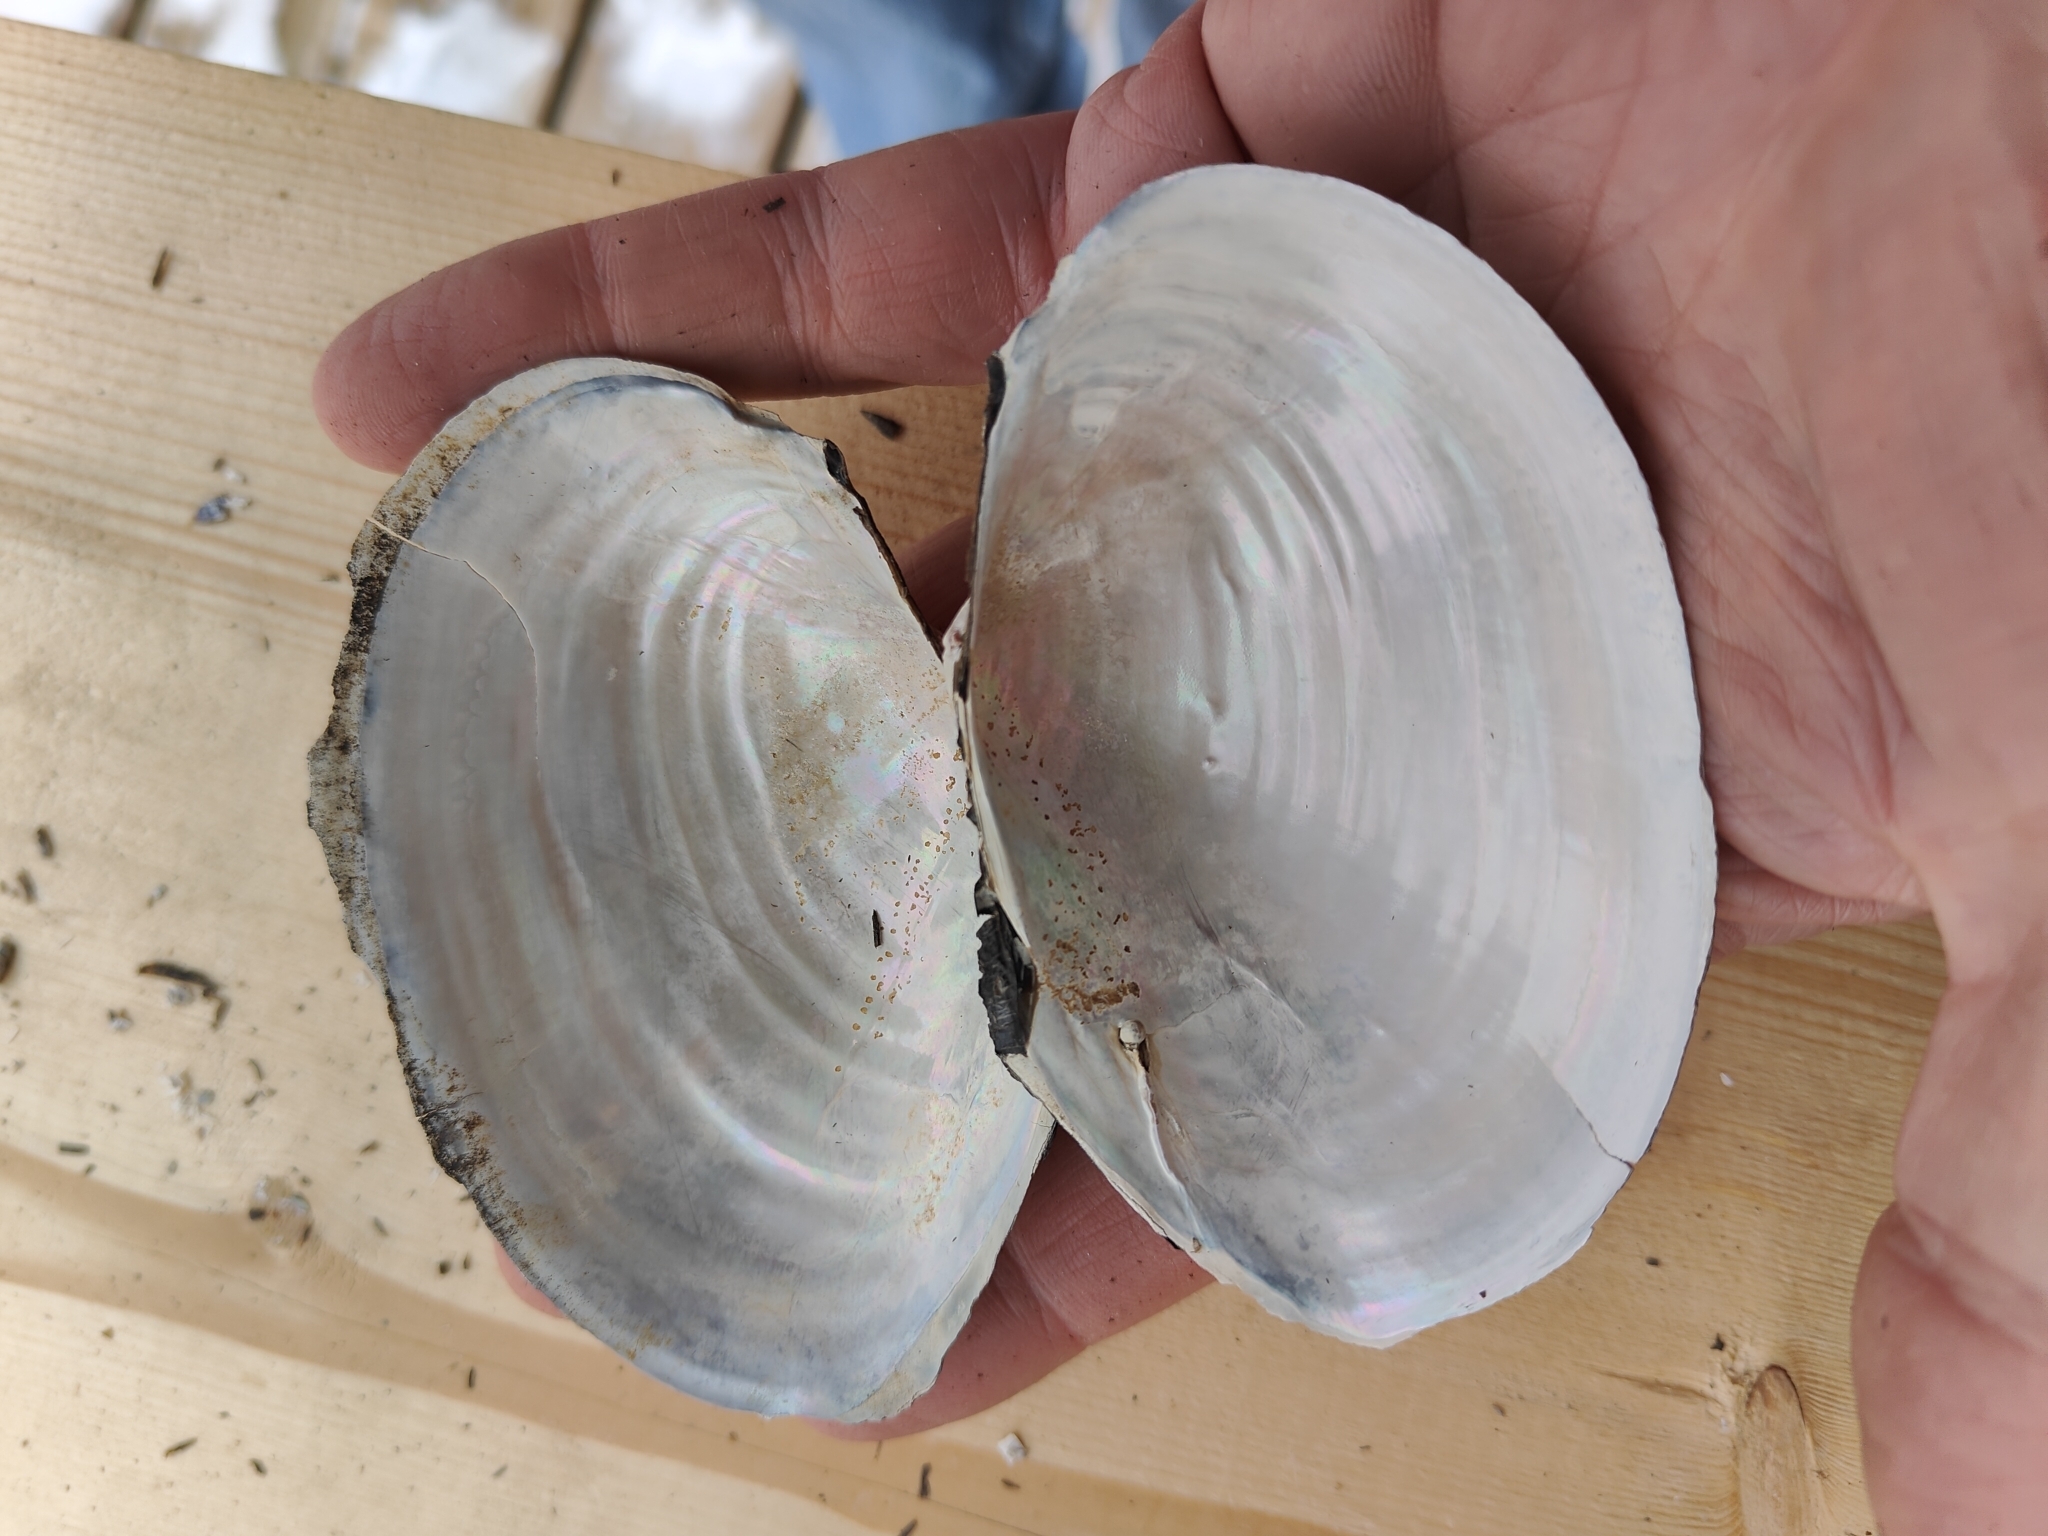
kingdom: Animalia
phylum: Mollusca
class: Bivalvia
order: Unionida
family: Unionidae
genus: Pyganodon
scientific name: Pyganodon grandis
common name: Giant floater
